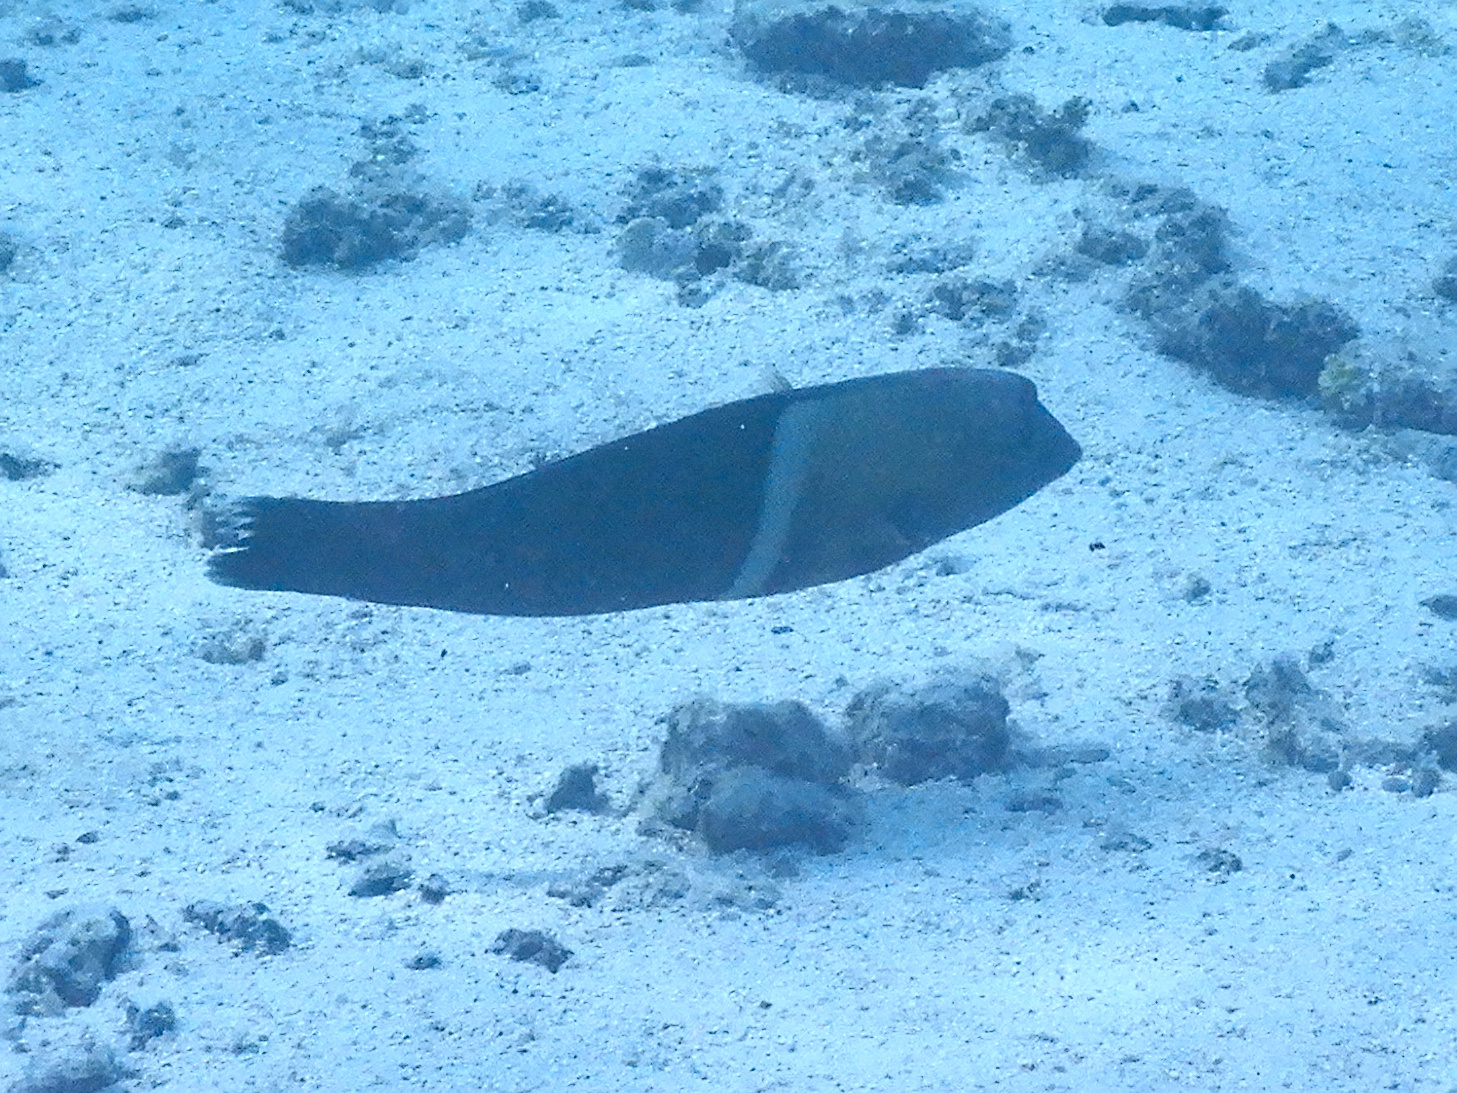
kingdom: Animalia
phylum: Chordata
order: Perciformes
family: Labridae
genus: Coris
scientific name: Coris aygula
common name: Clown coris
